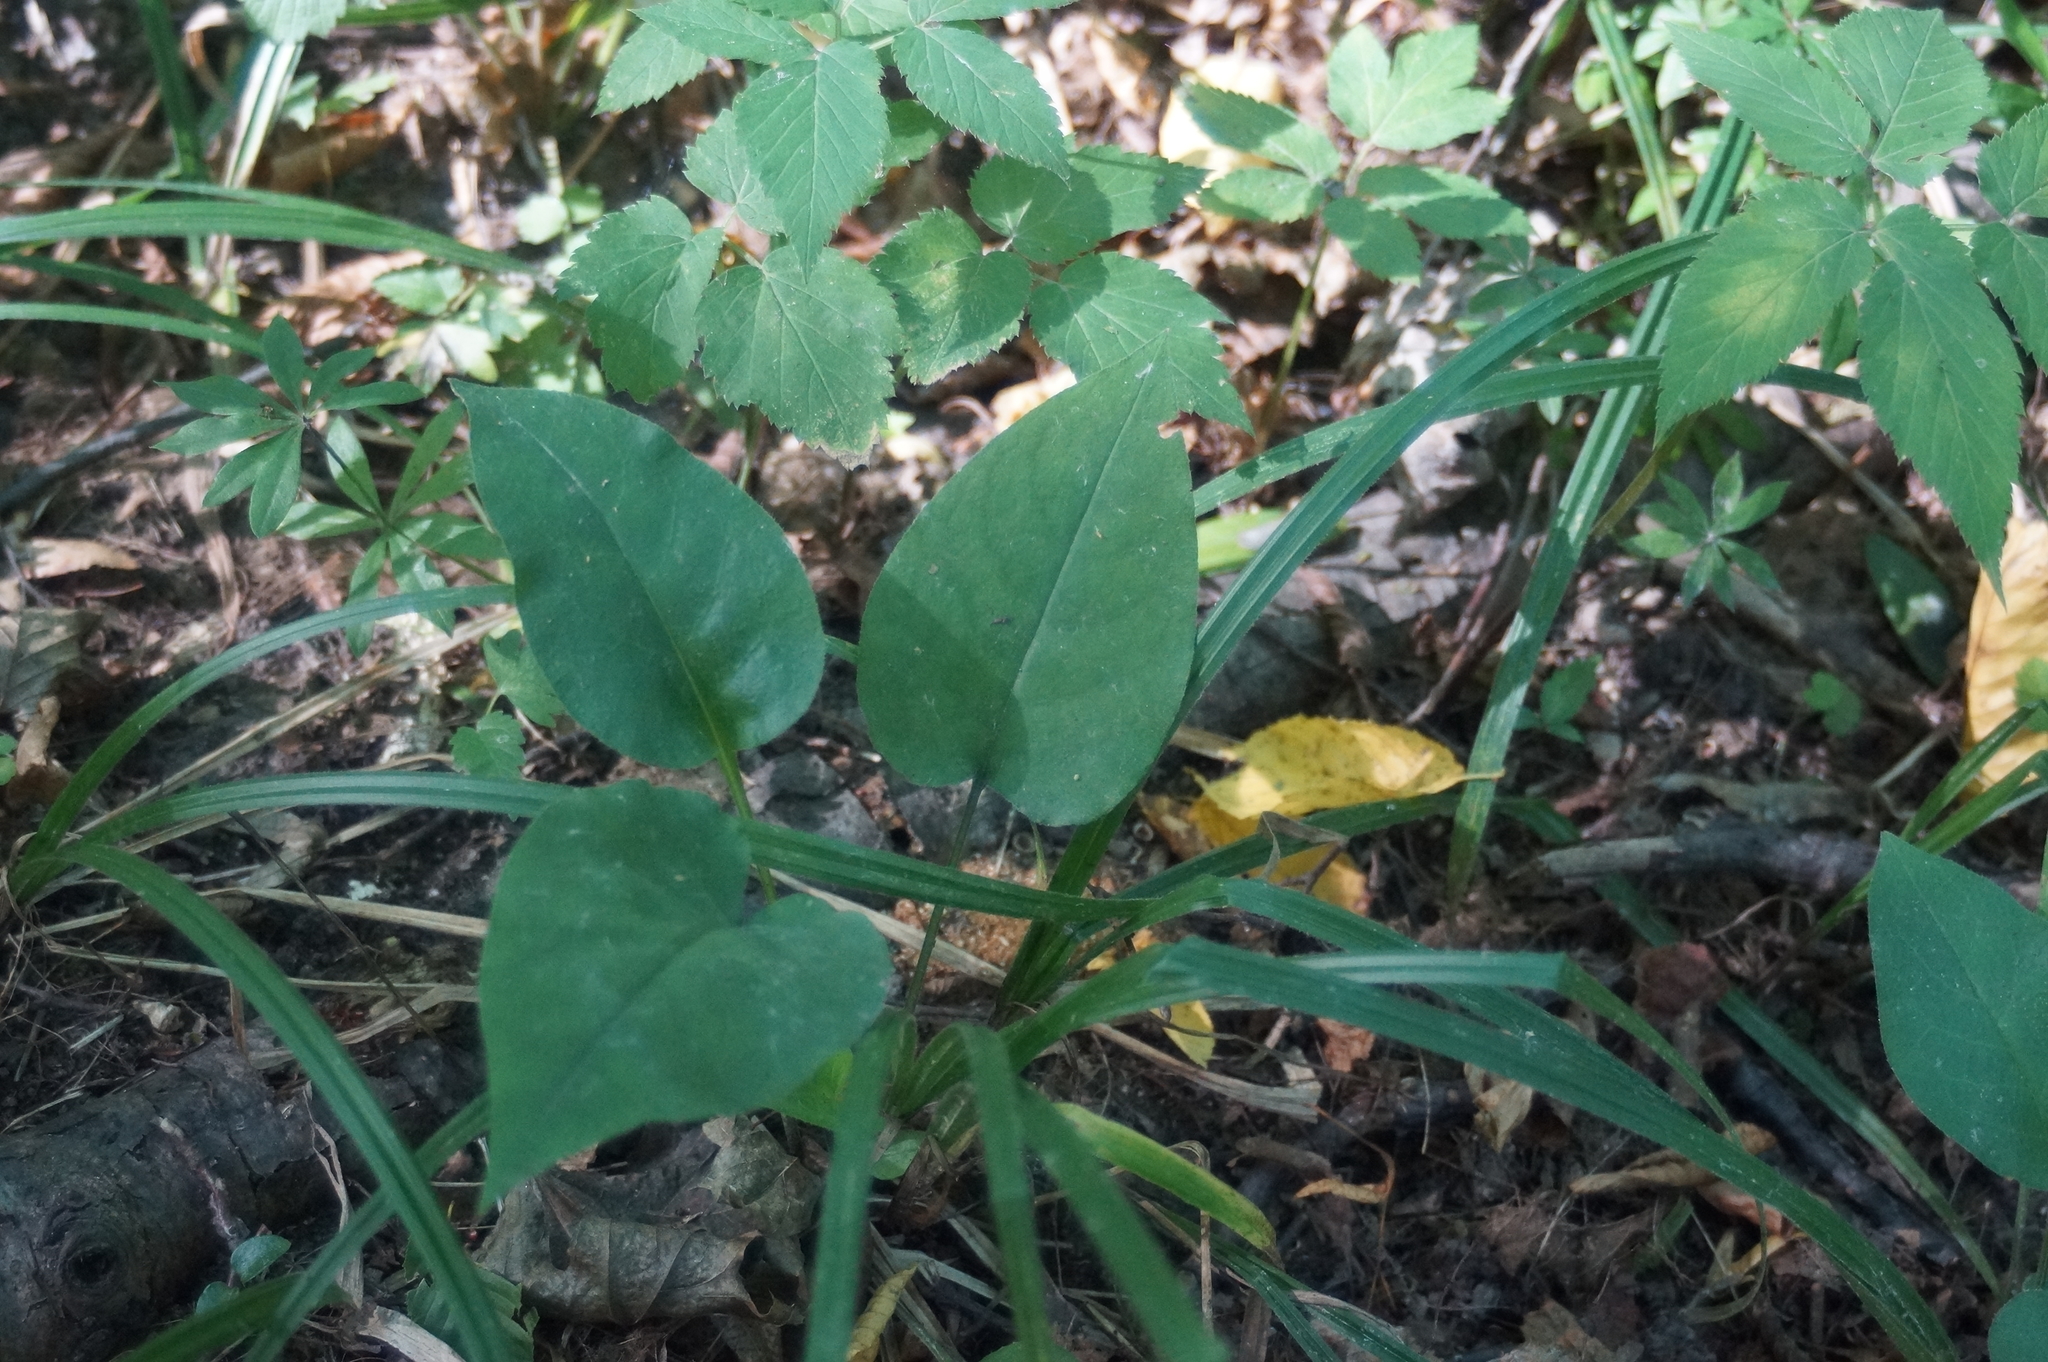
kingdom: Plantae
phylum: Tracheophyta
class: Magnoliopsida
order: Boraginales
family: Boraginaceae
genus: Pulmonaria
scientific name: Pulmonaria obscura
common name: Suffolk lungwort
